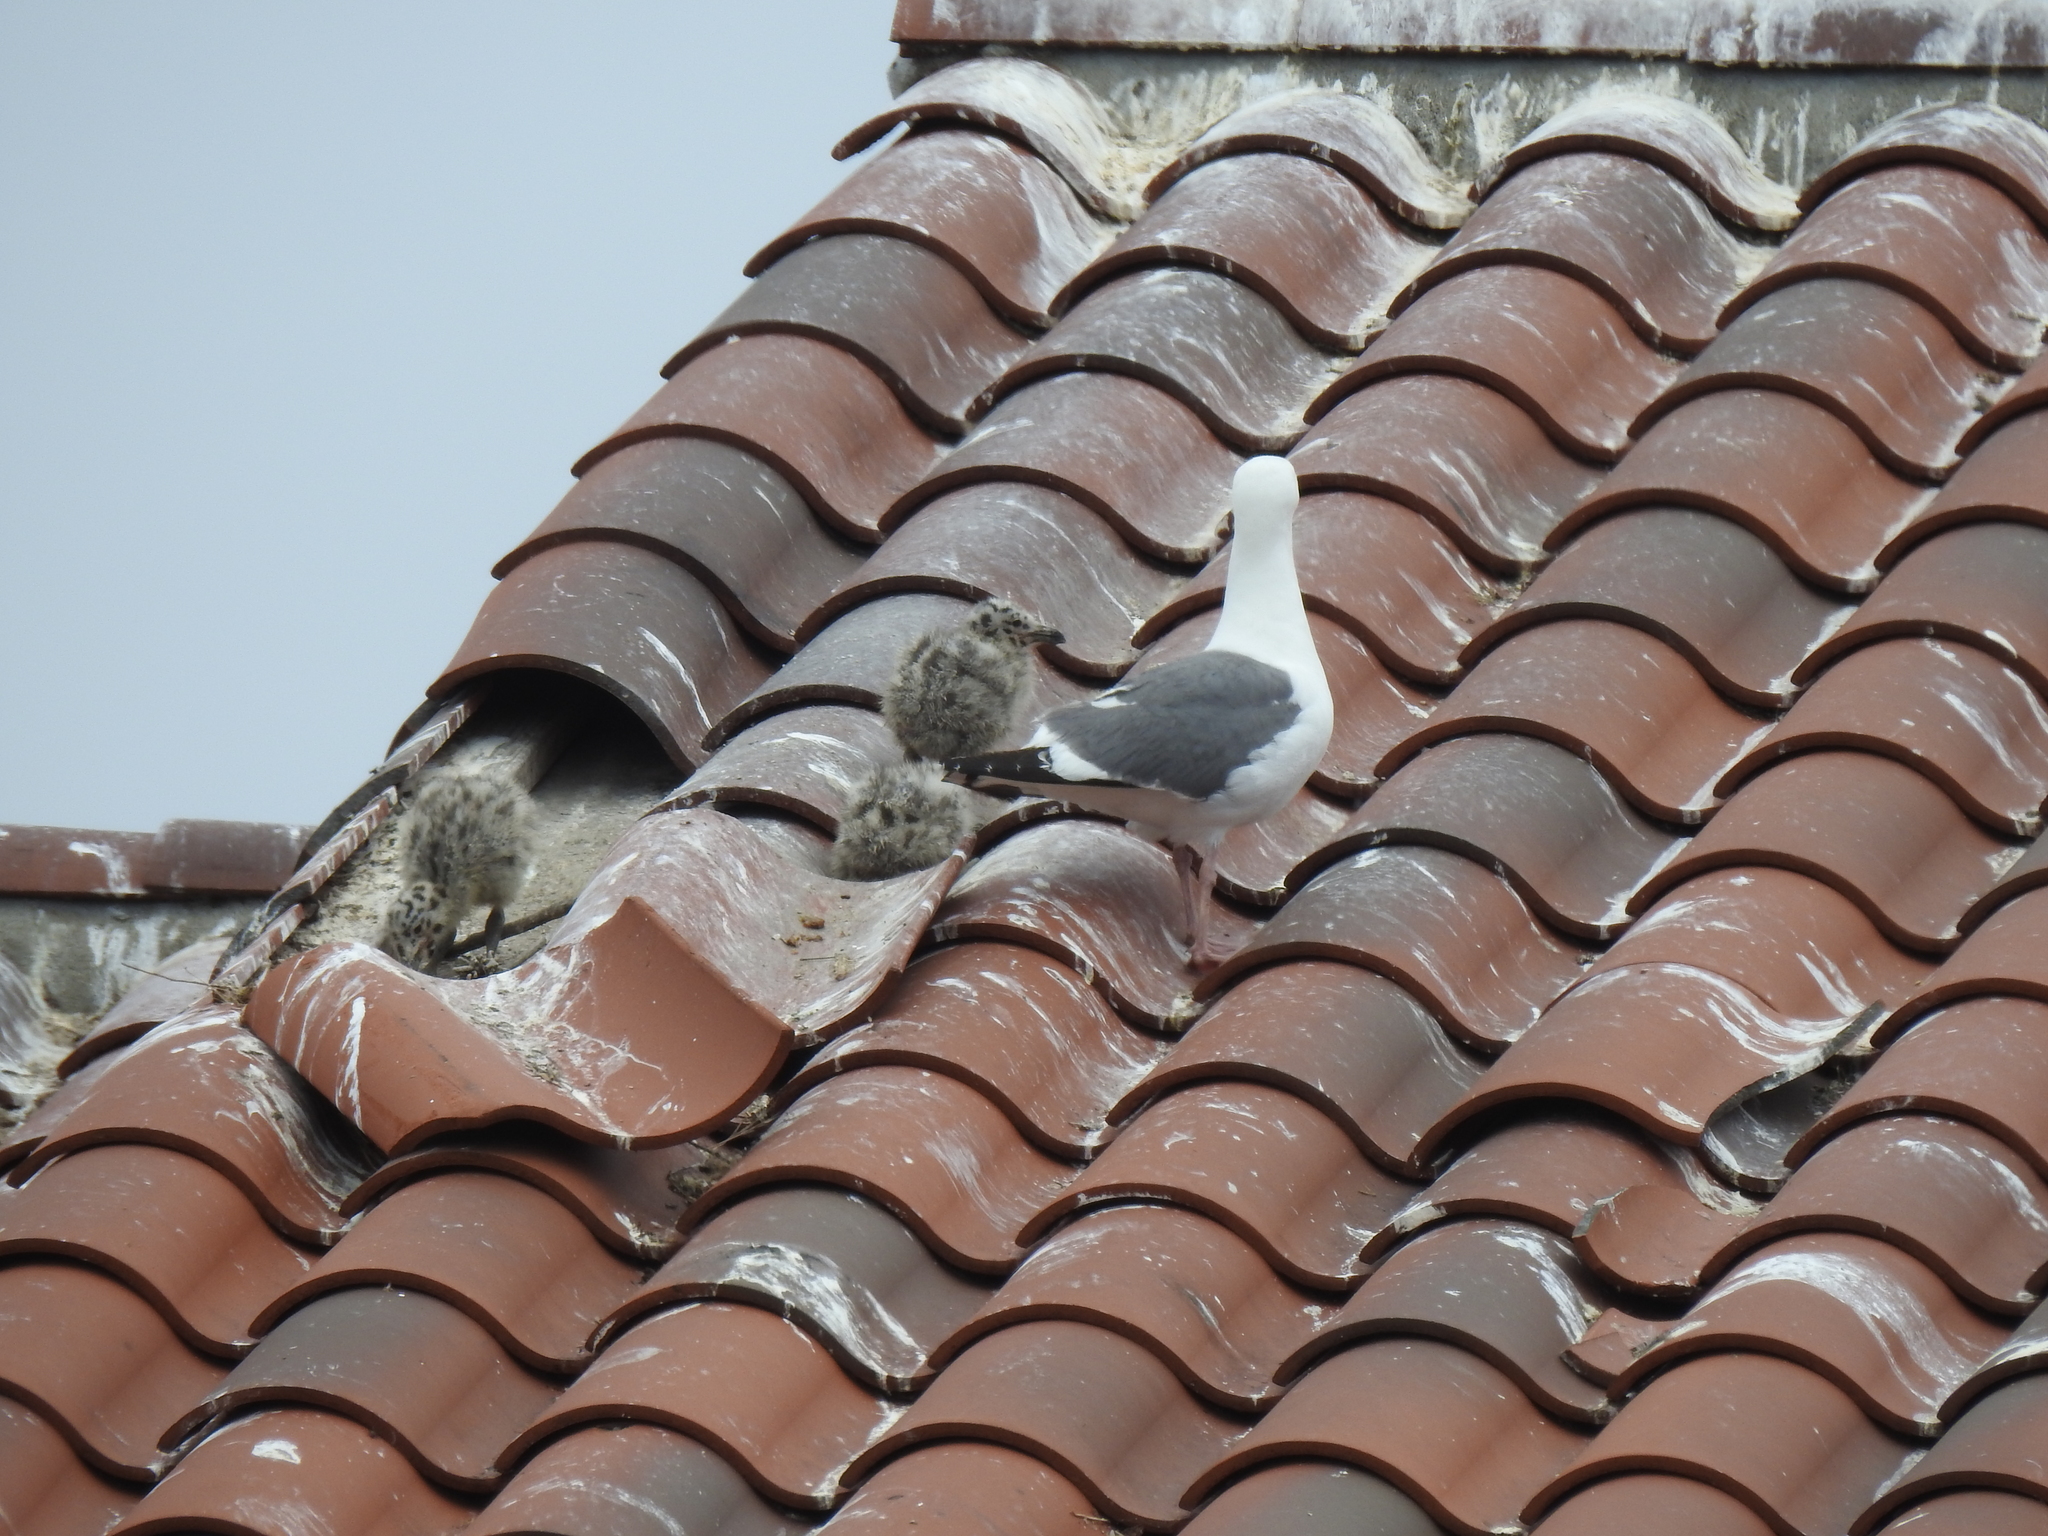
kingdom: Animalia
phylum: Chordata
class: Aves
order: Charadriiformes
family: Laridae
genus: Larus
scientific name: Larus occidentalis
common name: Western gull
